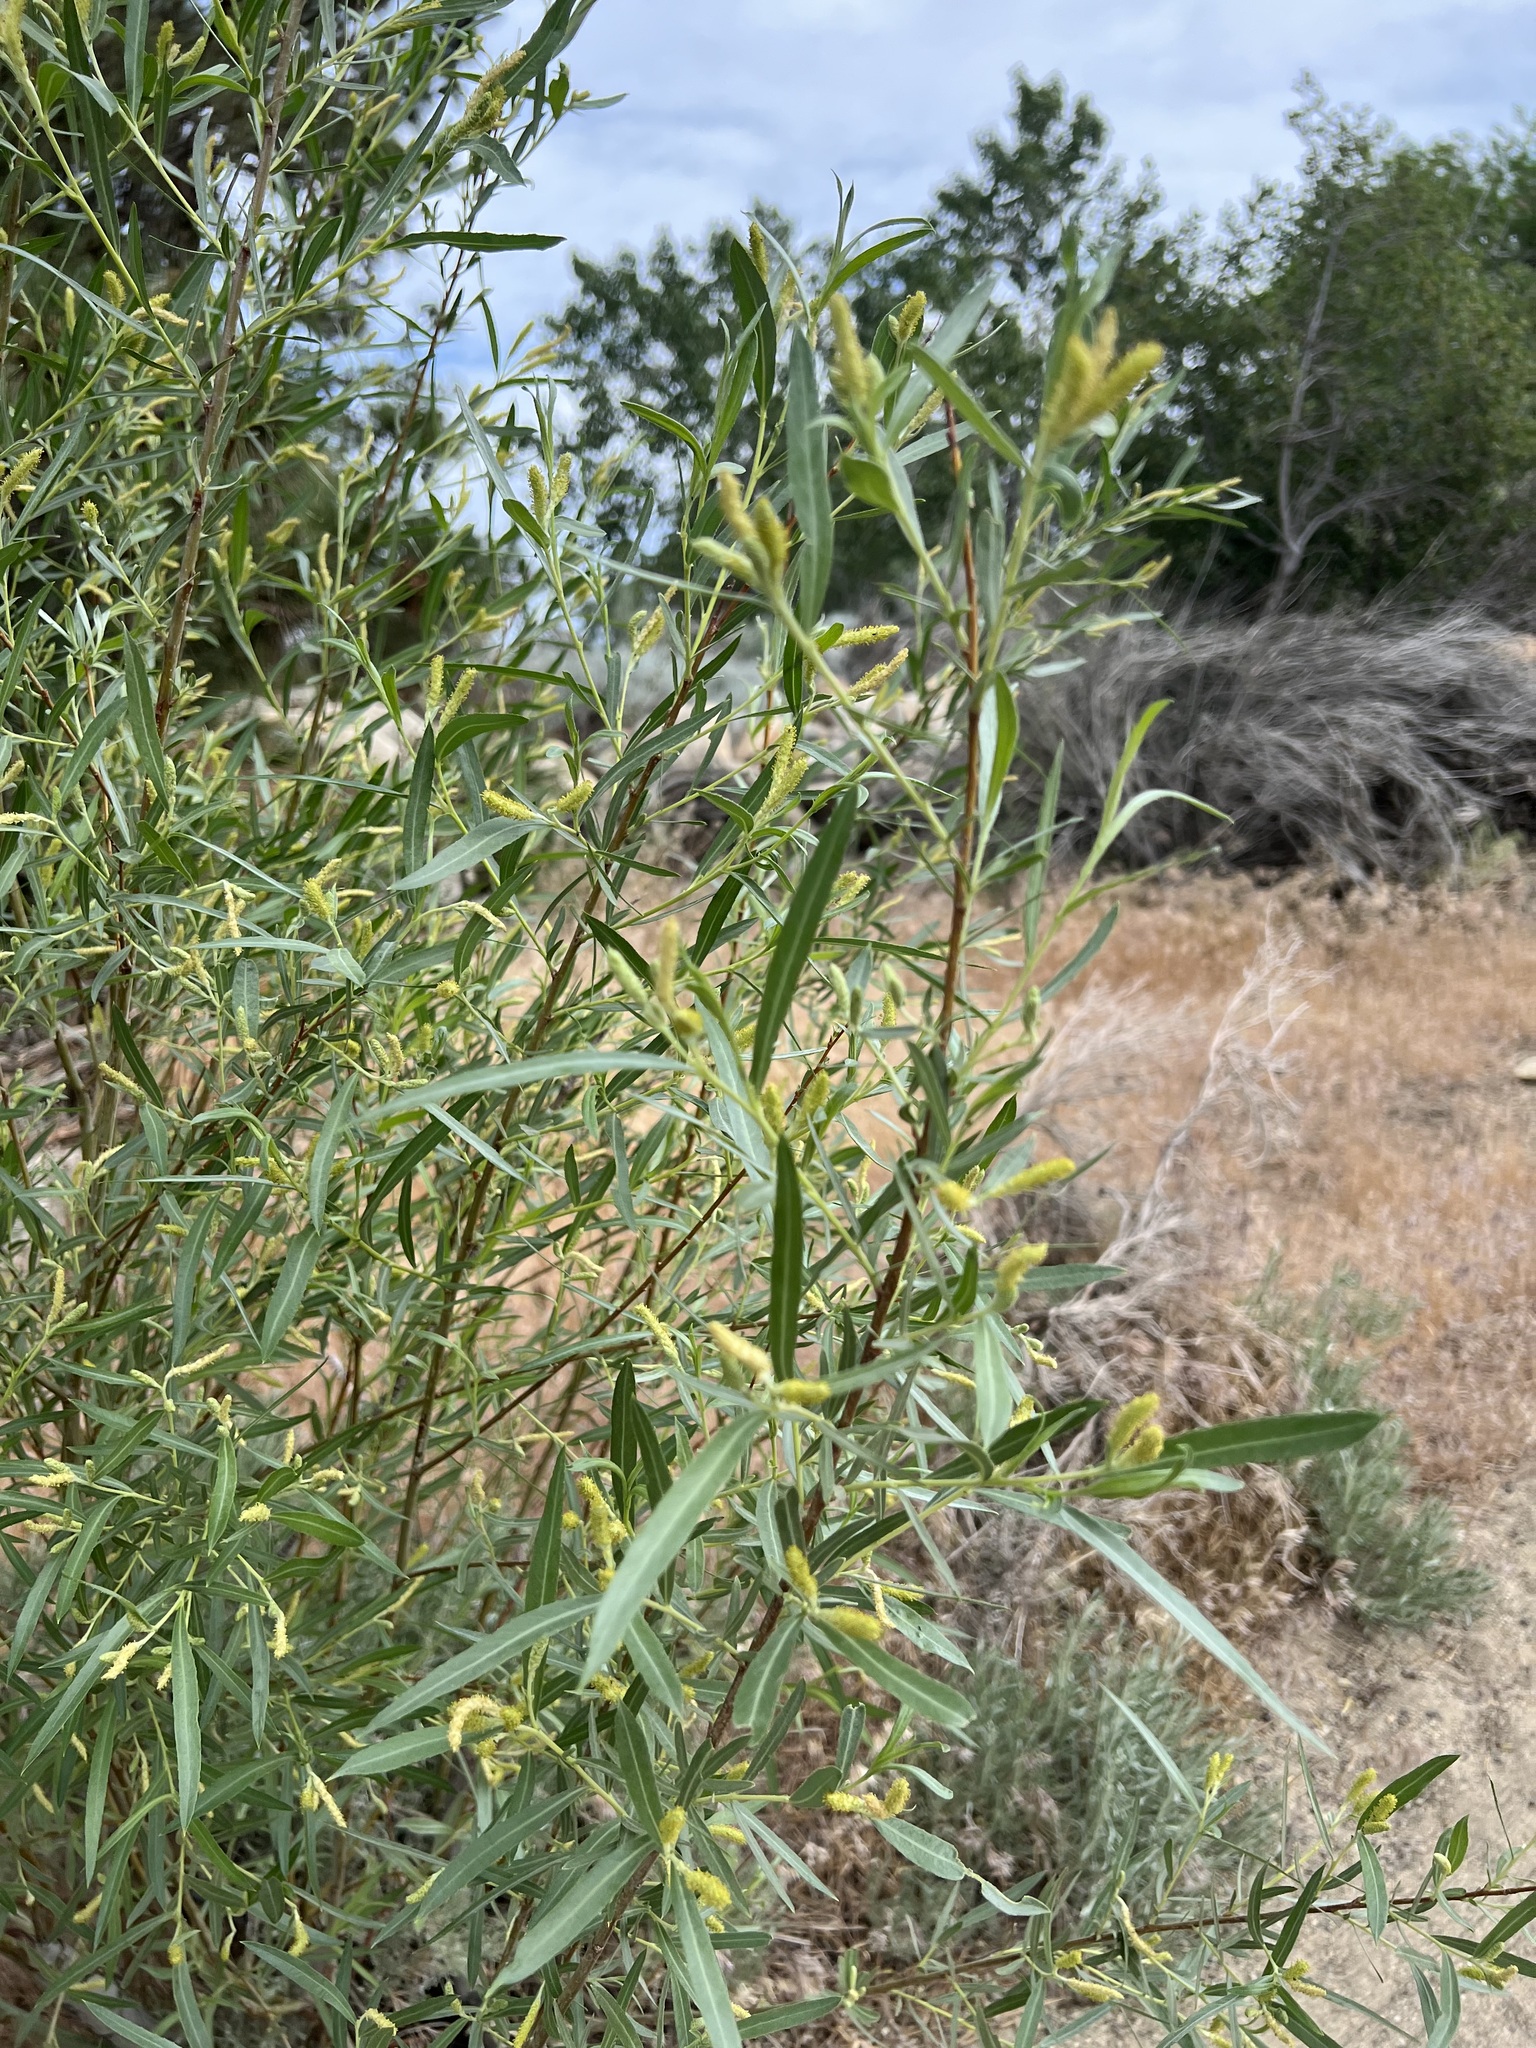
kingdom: Plantae
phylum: Tracheophyta
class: Magnoliopsida
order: Malpighiales
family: Salicaceae
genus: Salix
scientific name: Salix exigua
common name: Coyote willow
